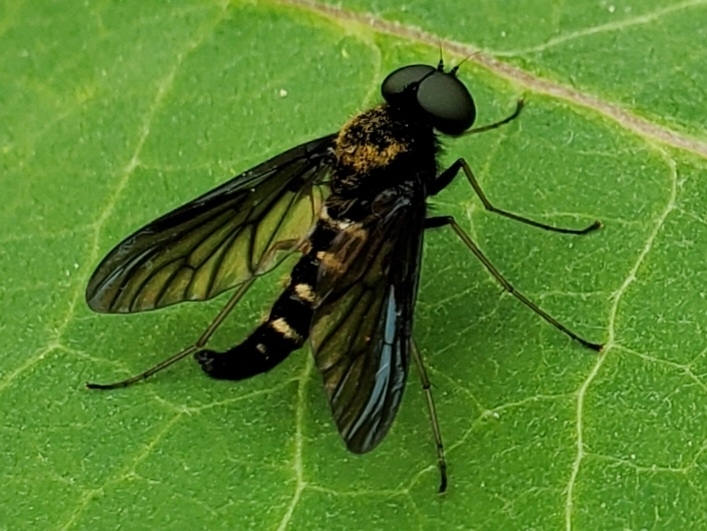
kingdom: Animalia
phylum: Arthropoda
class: Insecta
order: Diptera
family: Rhagionidae
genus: Chrysopilus
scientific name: Chrysopilus thoracicus
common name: Golden-backed snipe fly
